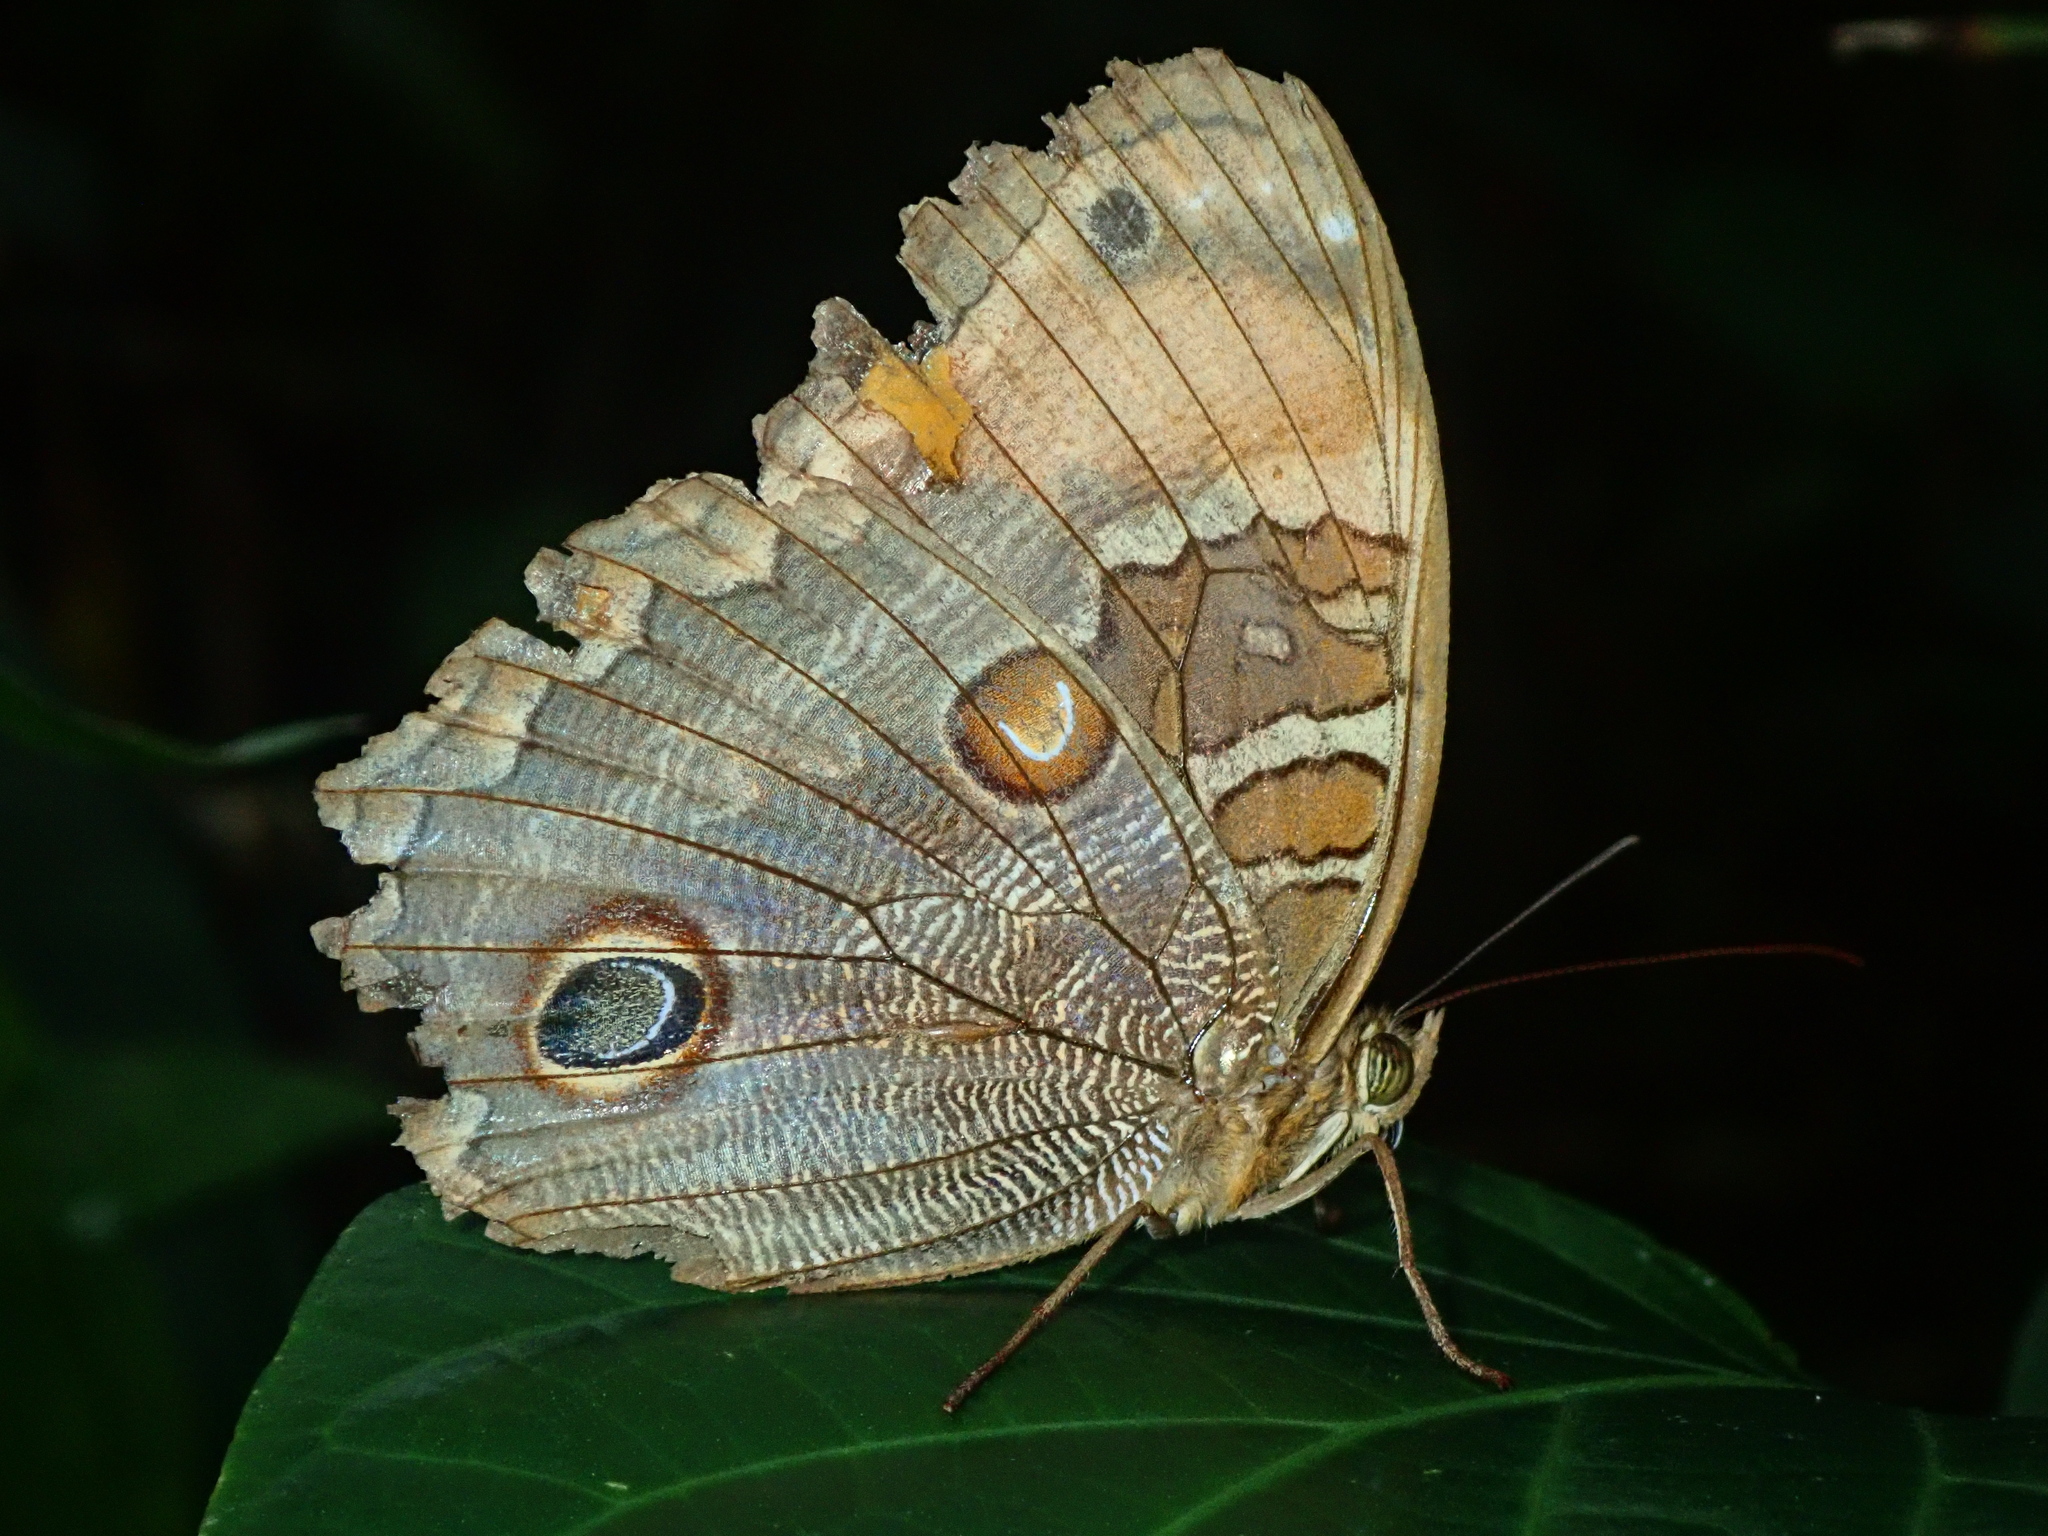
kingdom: Animalia
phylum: Arthropoda
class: Insecta
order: Lepidoptera
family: Nymphalidae
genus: Opoptera
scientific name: Opoptera sulcius
